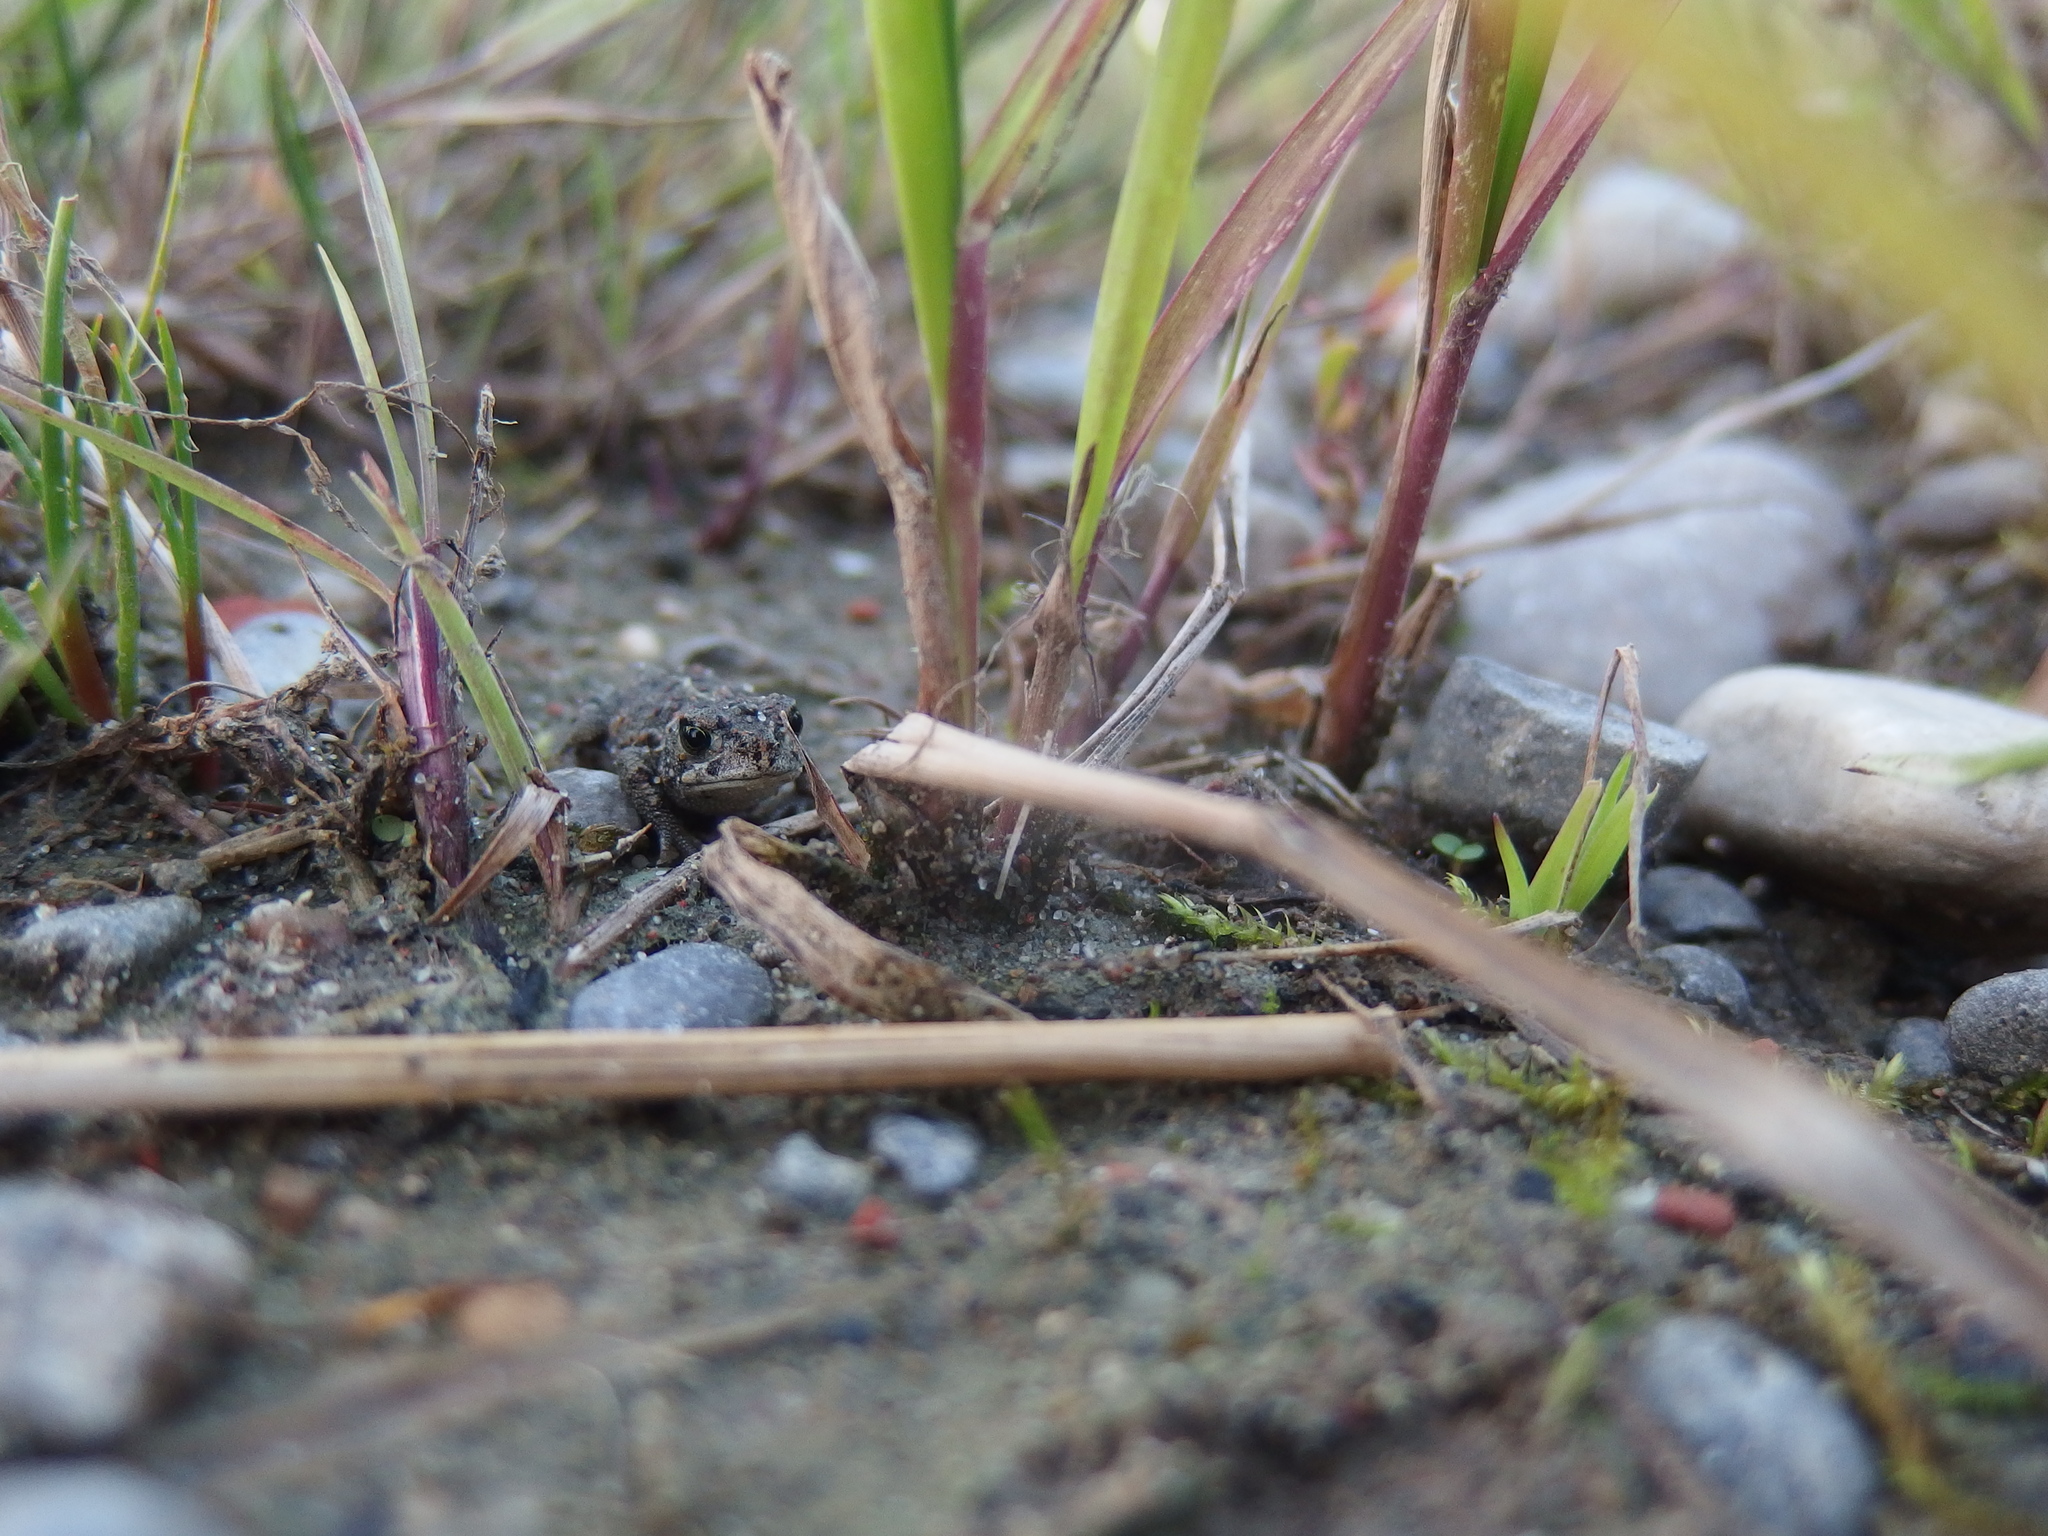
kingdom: Animalia
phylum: Chordata
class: Amphibia
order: Anura
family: Bufonidae
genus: Epidalea
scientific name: Epidalea calamita
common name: Natterjack toad
